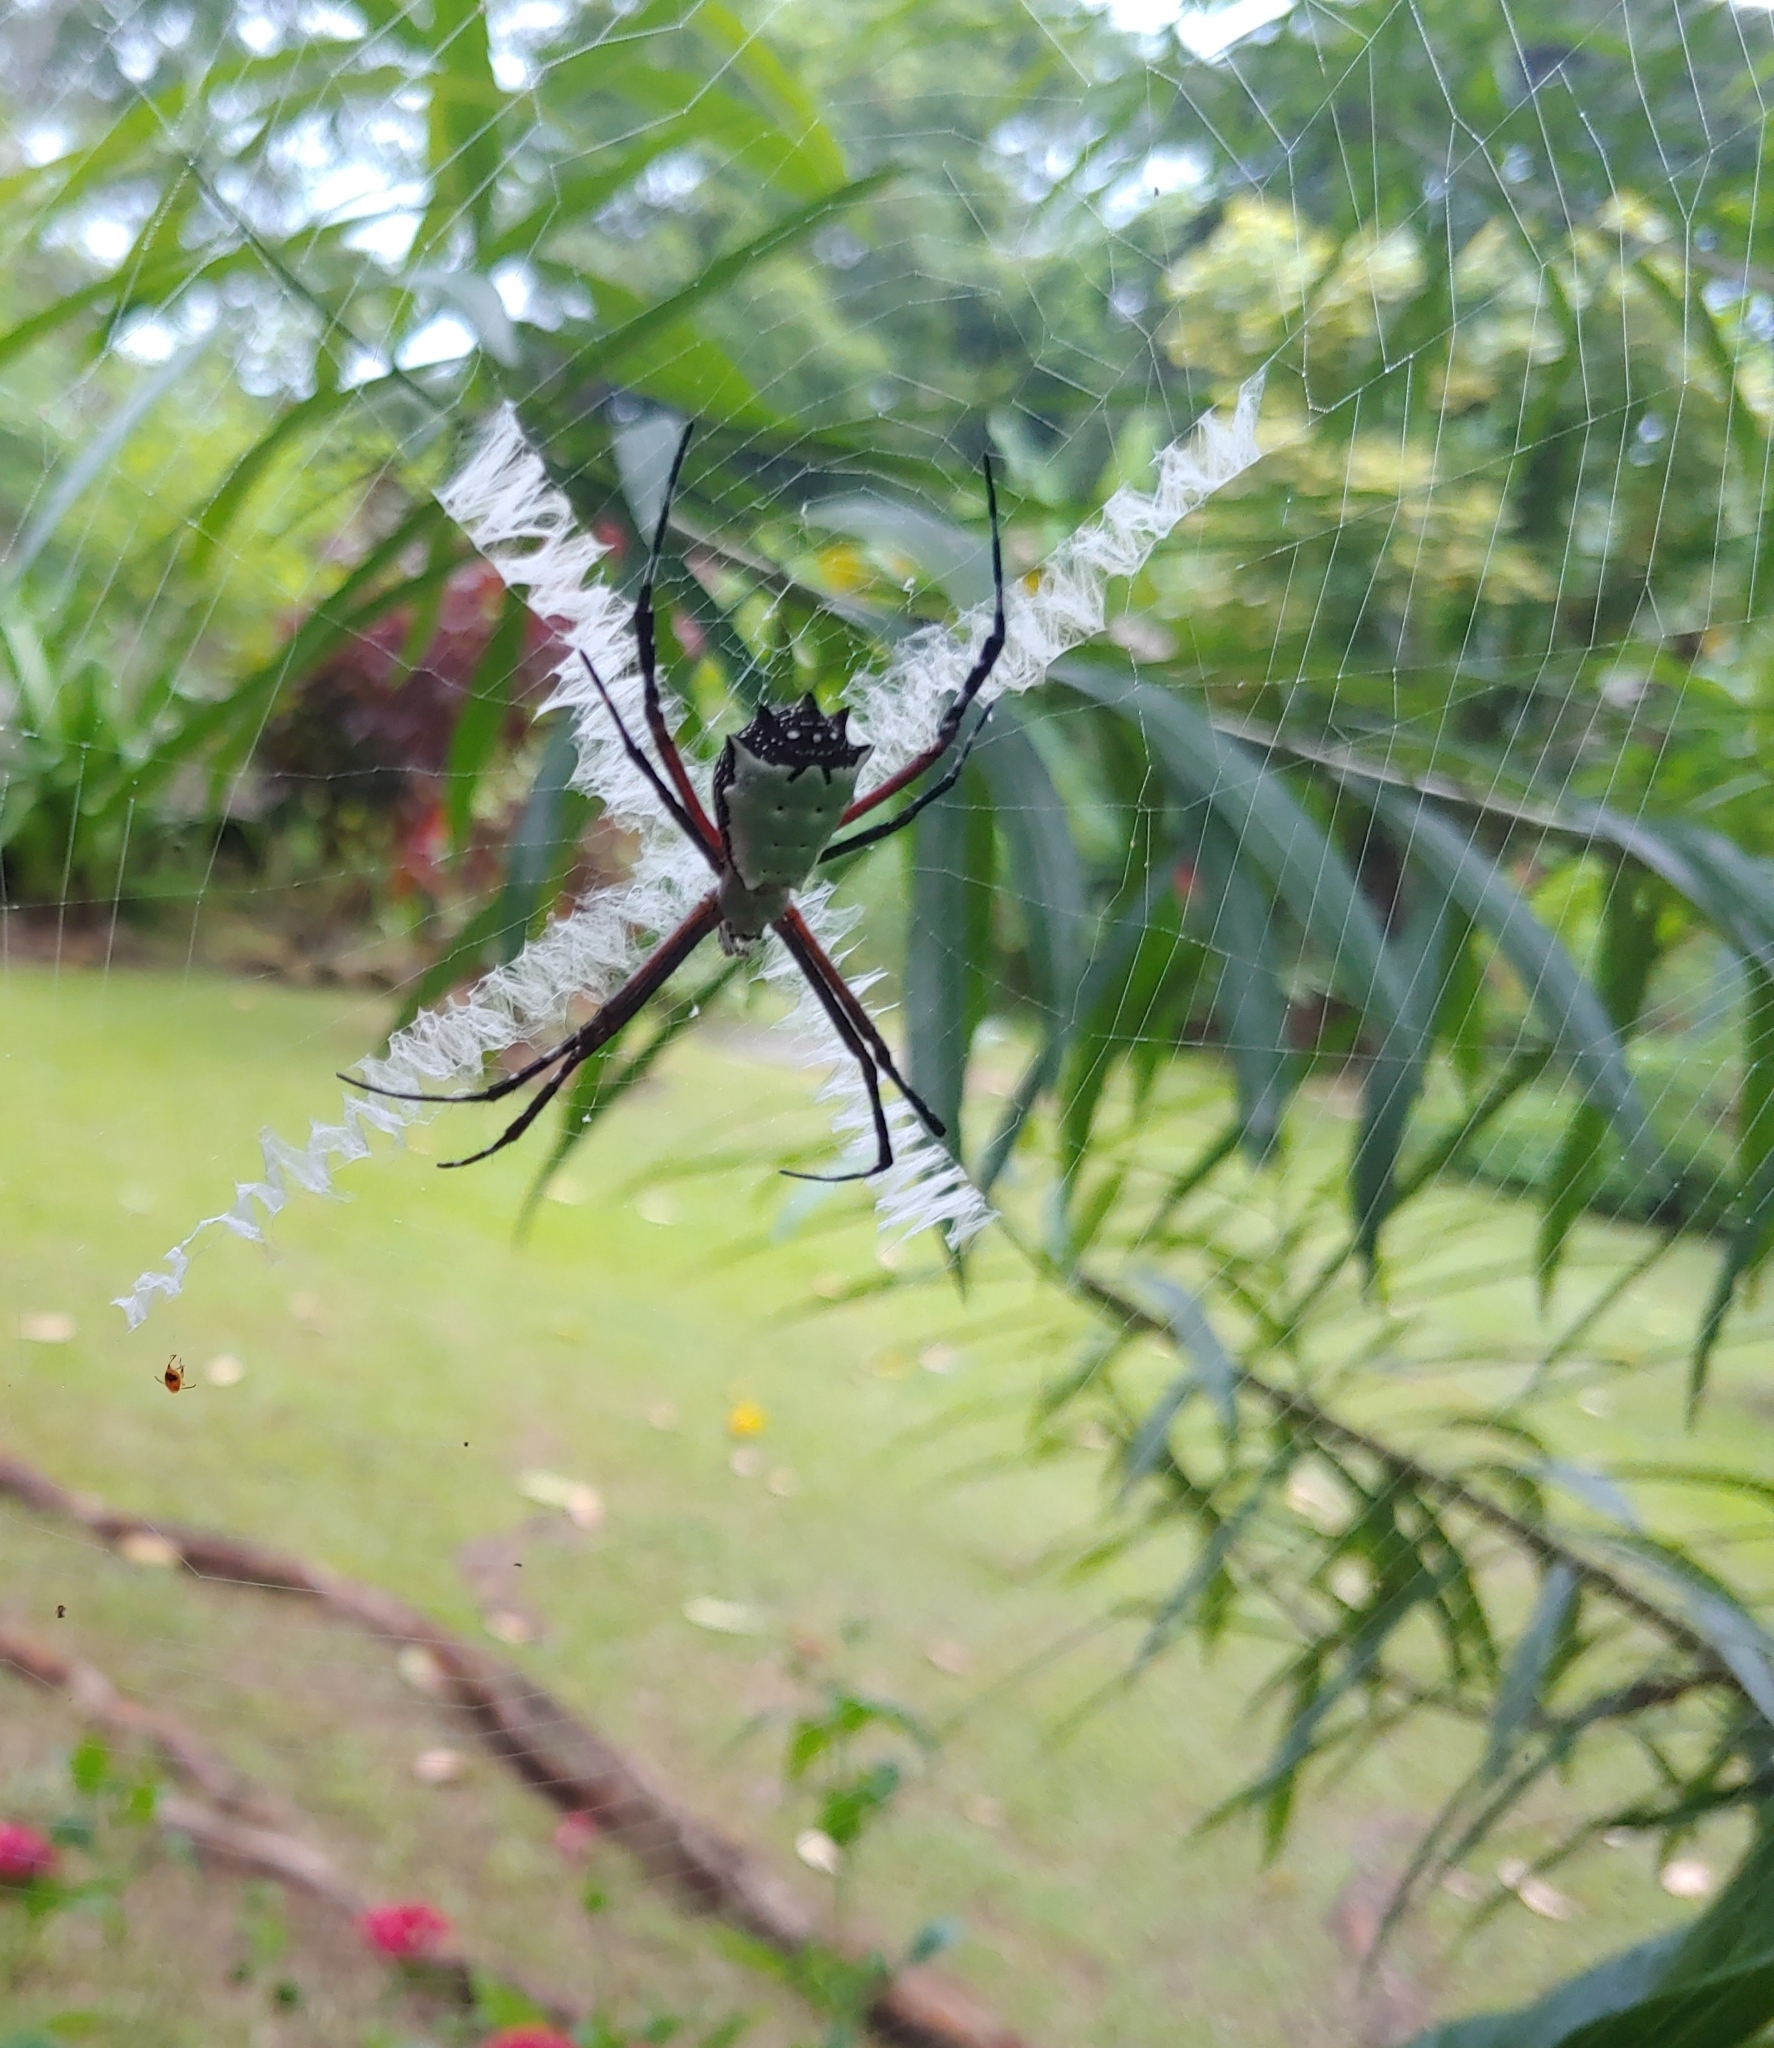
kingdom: Animalia
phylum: Arthropoda
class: Arachnida
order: Araneae
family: Araneidae
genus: Argiope
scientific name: Argiope submaronica
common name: Orb weavers
